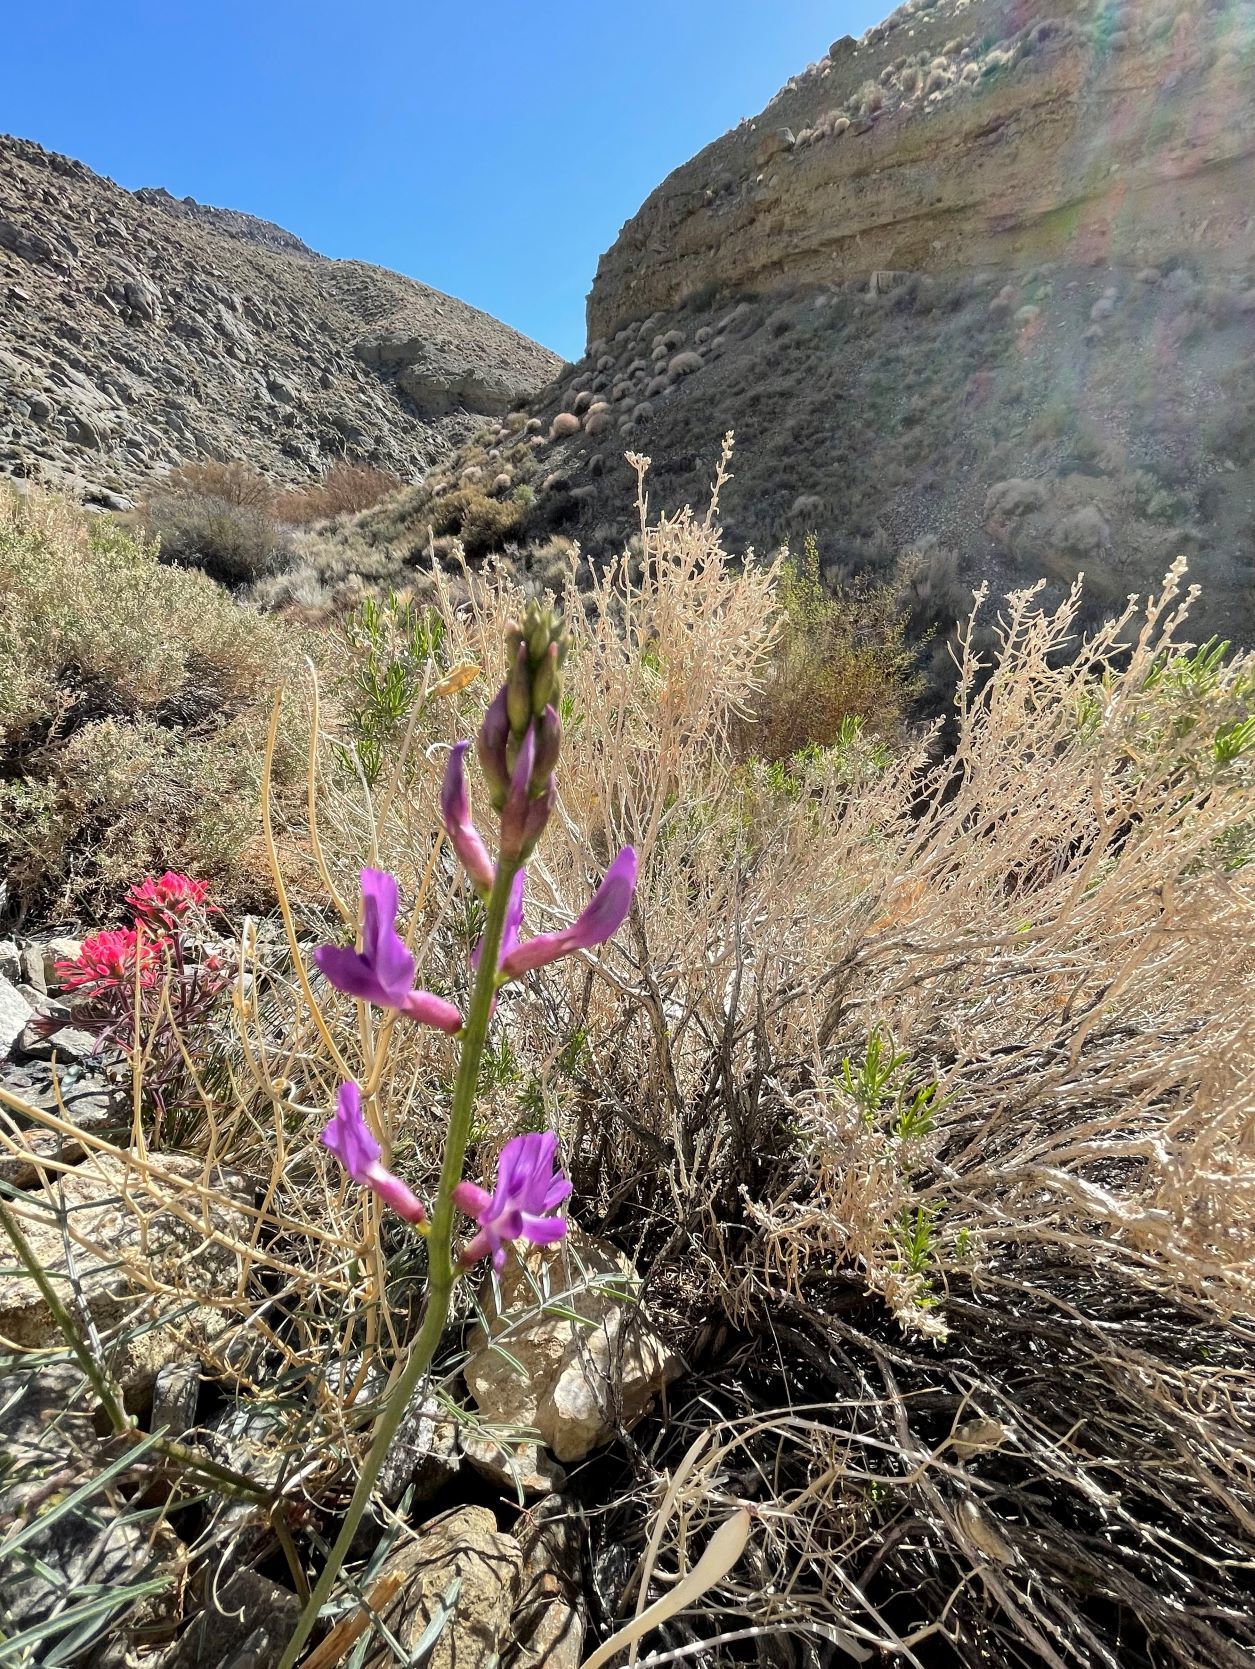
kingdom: Plantae
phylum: Tracheophyta
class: Magnoliopsida
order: Fabales
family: Fabaceae
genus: Astragalus
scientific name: Astragalus serenoi
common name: Naked milk-vetch
